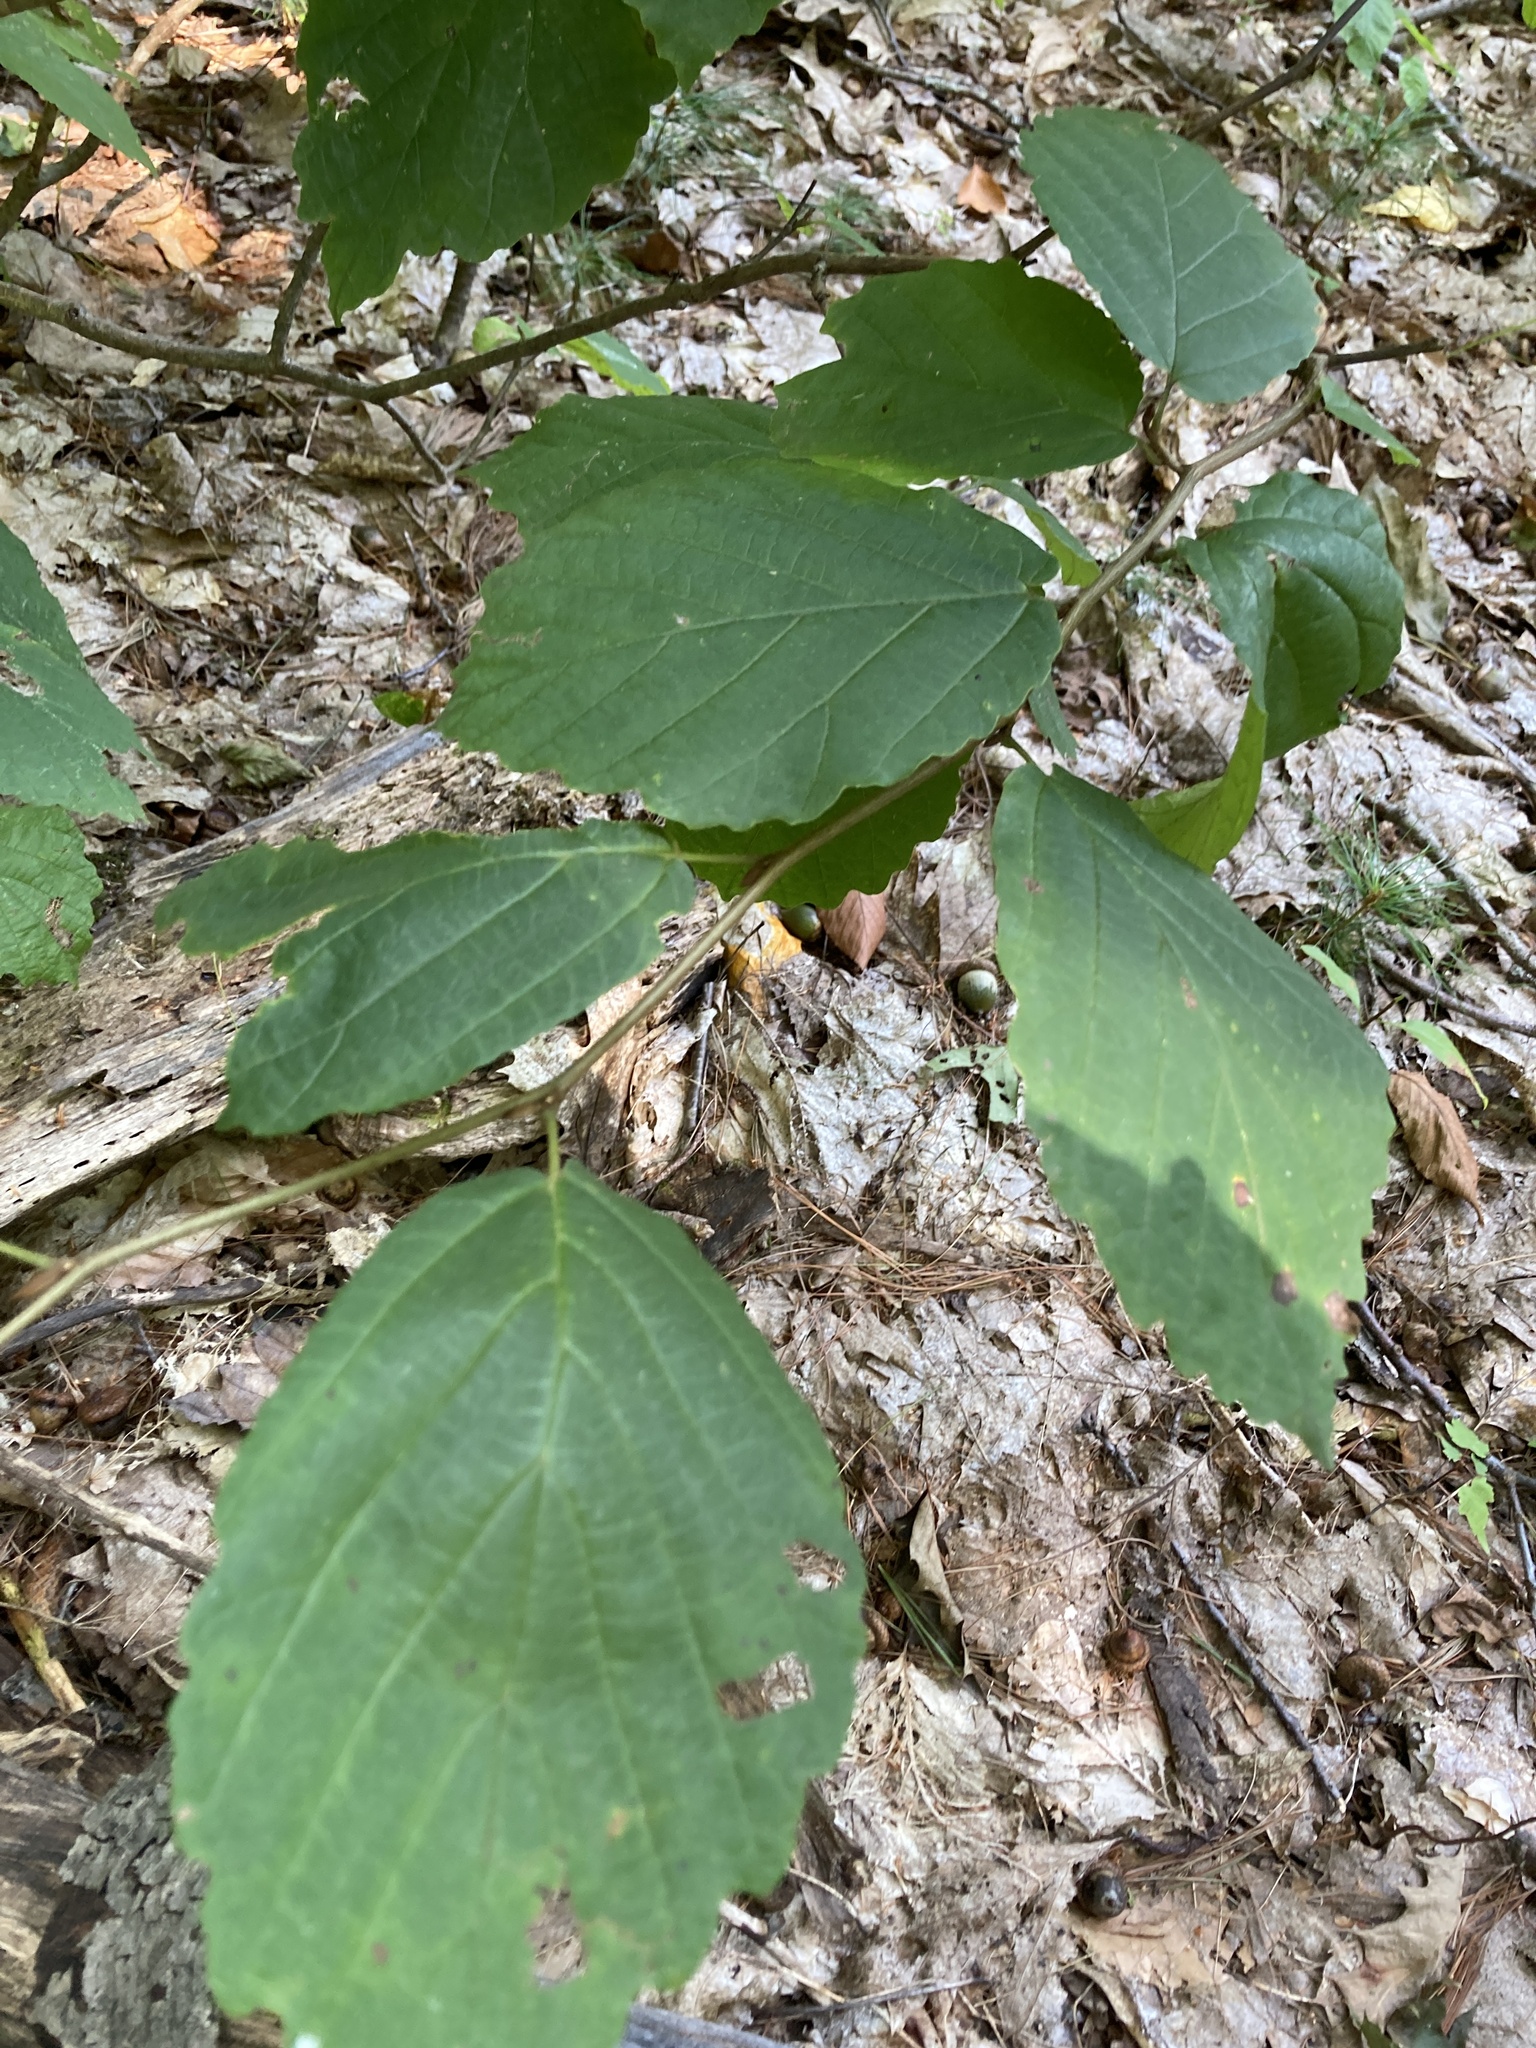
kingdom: Plantae
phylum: Tracheophyta
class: Magnoliopsida
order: Saxifragales
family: Hamamelidaceae
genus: Hamamelis
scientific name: Hamamelis virginiana
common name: Witch-hazel
